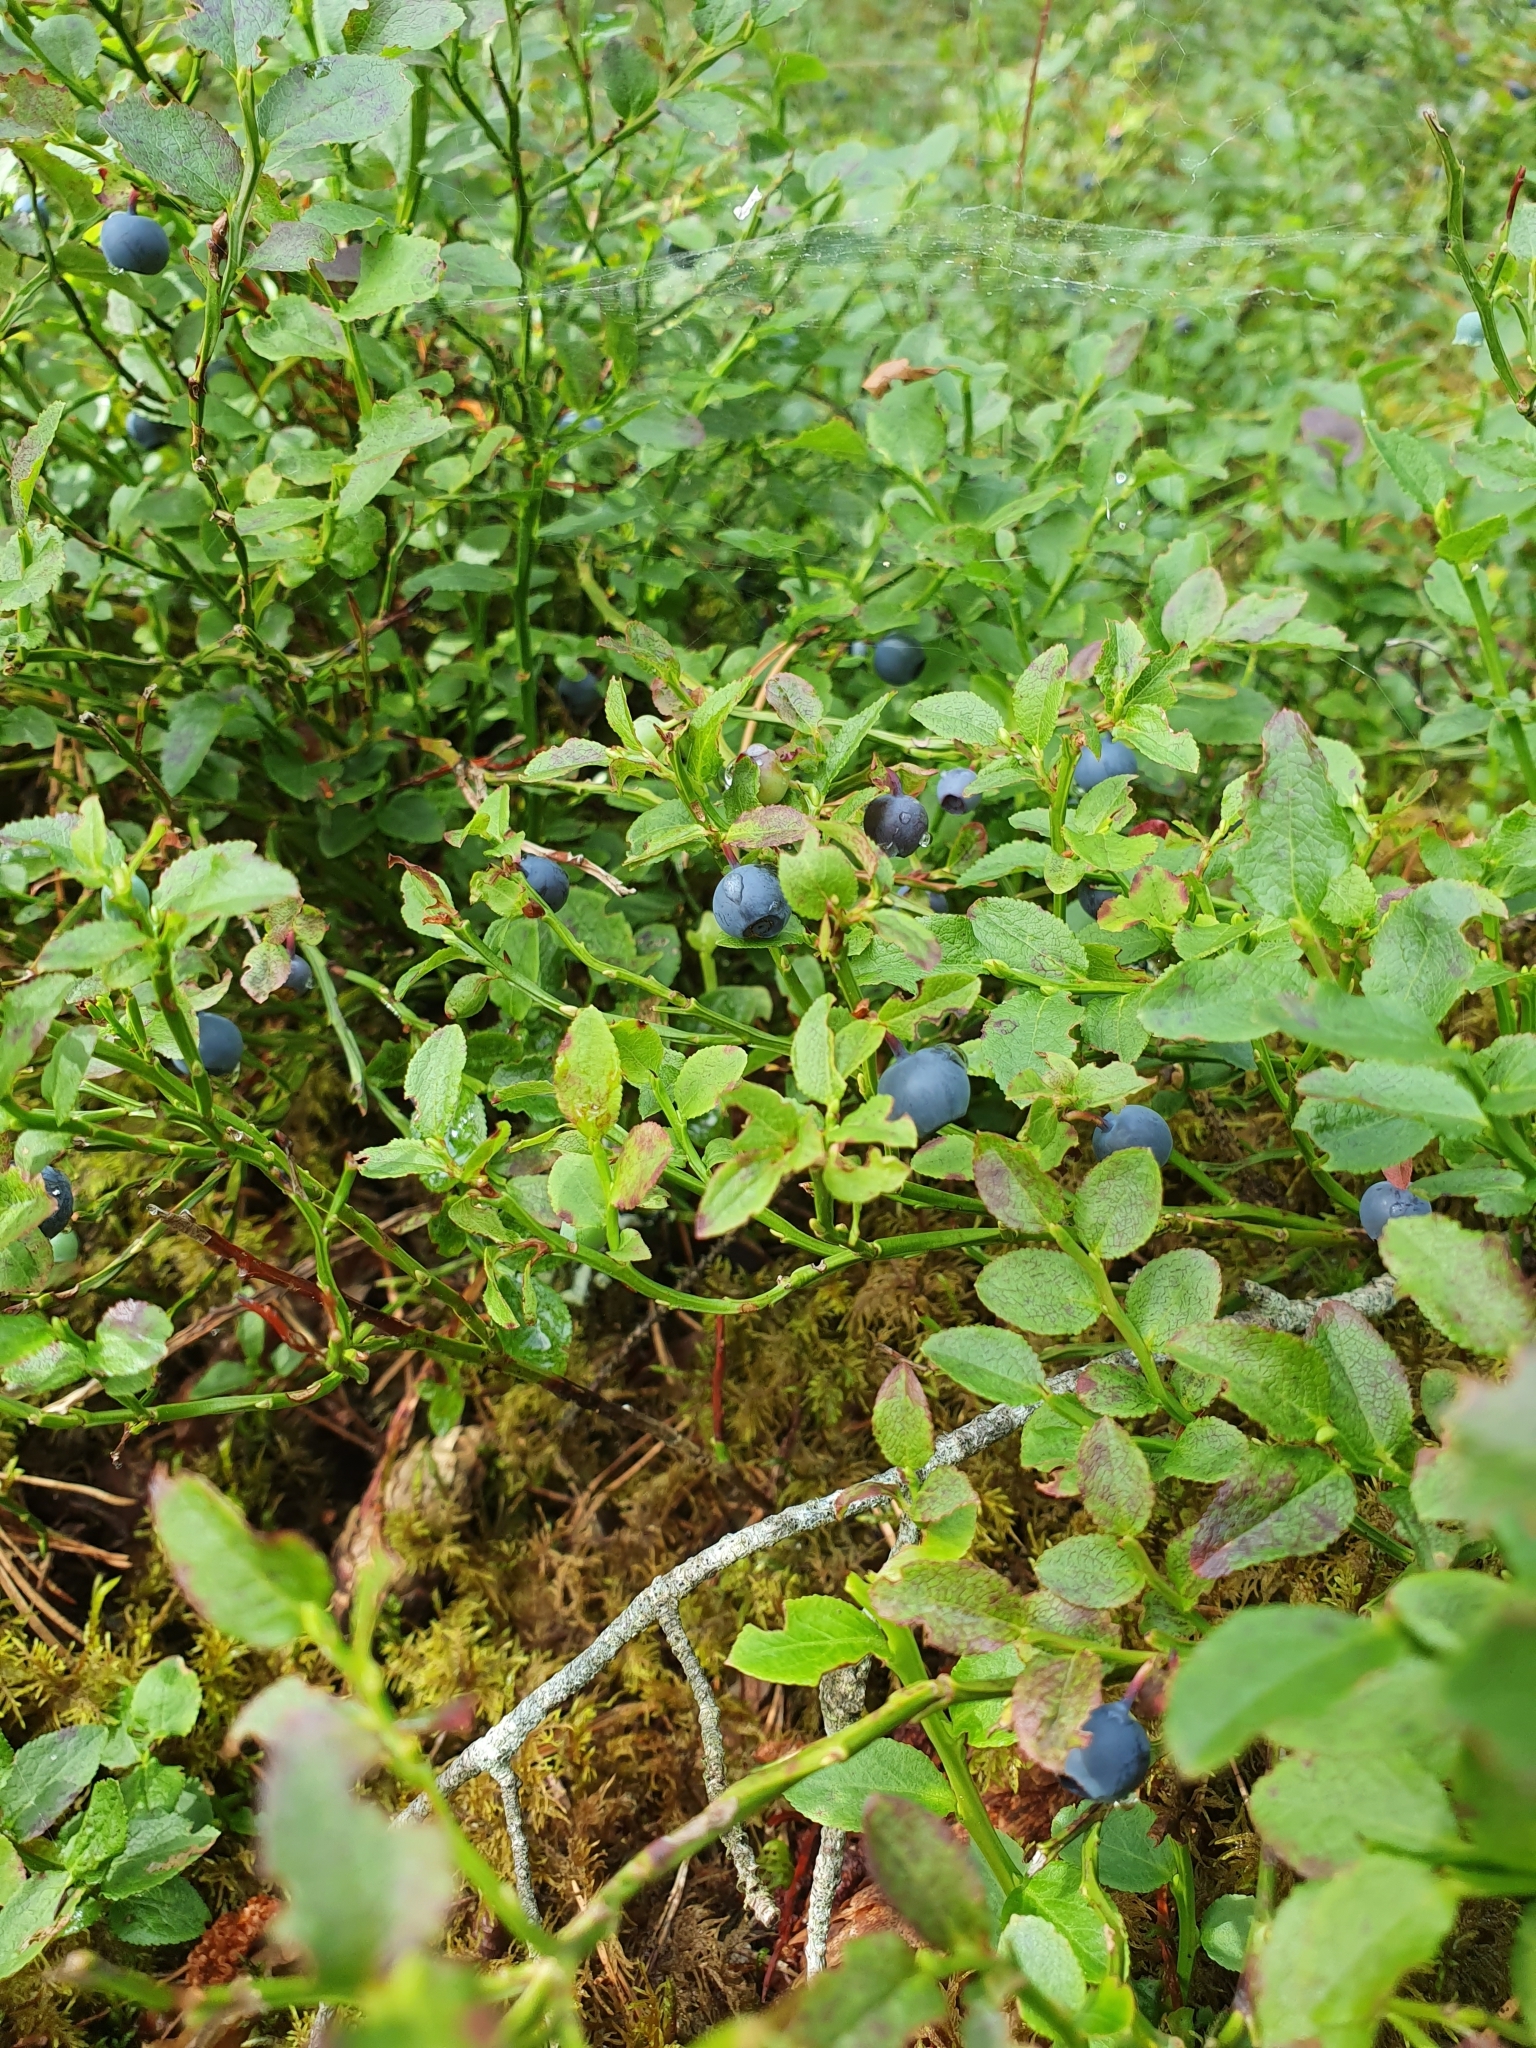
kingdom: Plantae
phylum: Tracheophyta
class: Magnoliopsida
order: Ericales
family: Ericaceae
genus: Vaccinium
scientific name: Vaccinium myrtillus
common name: Bilberry
